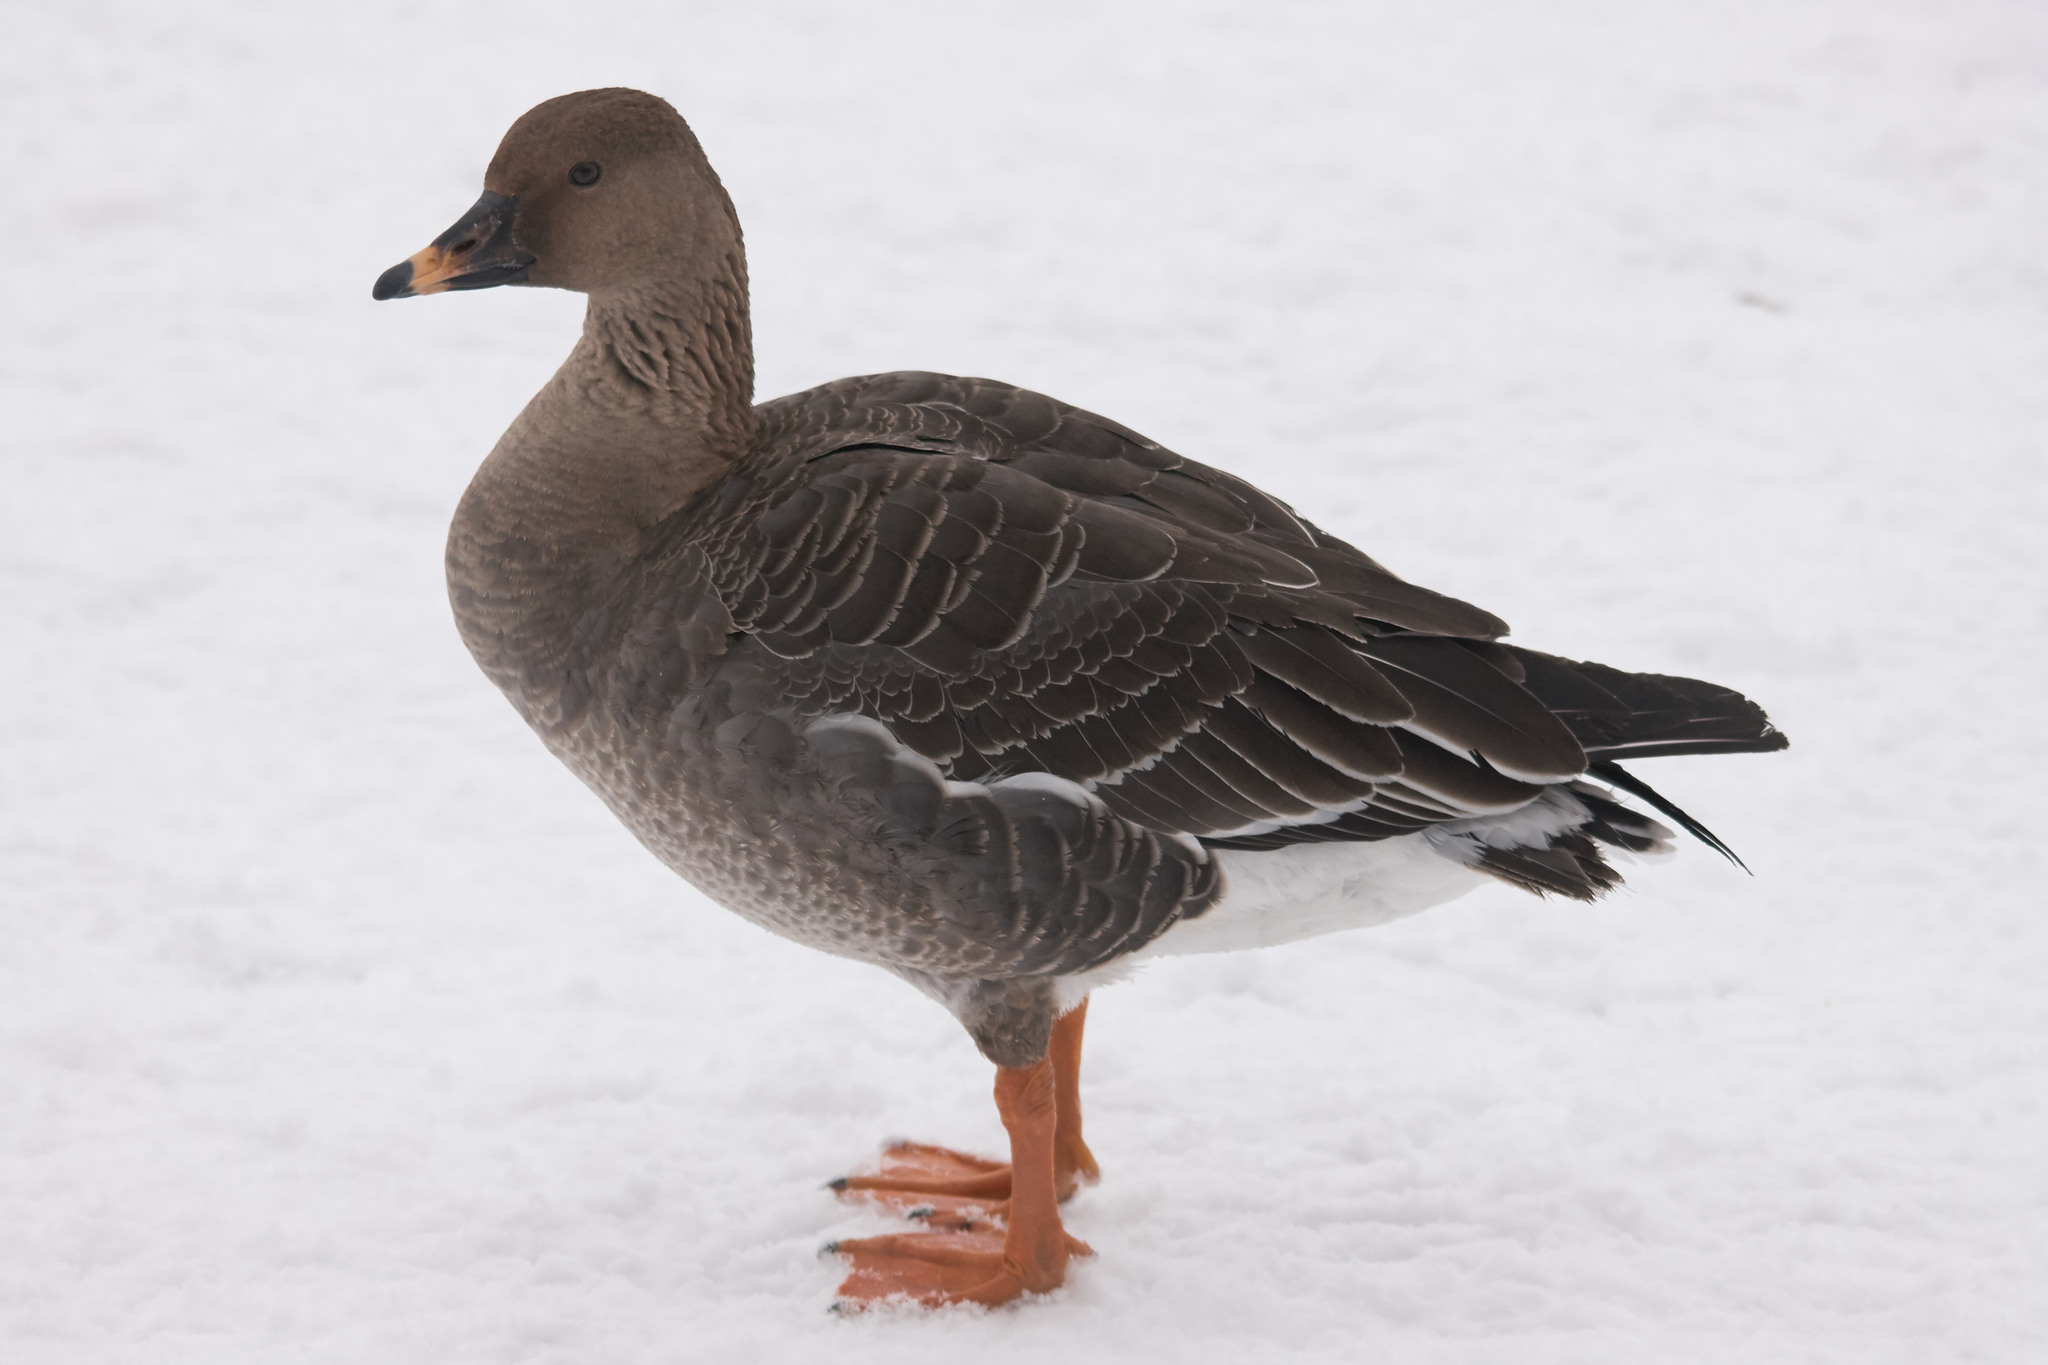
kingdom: Animalia
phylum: Chordata
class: Aves
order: Anseriformes
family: Anatidae
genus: Anser
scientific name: Anser fabalis
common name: Bean goose
